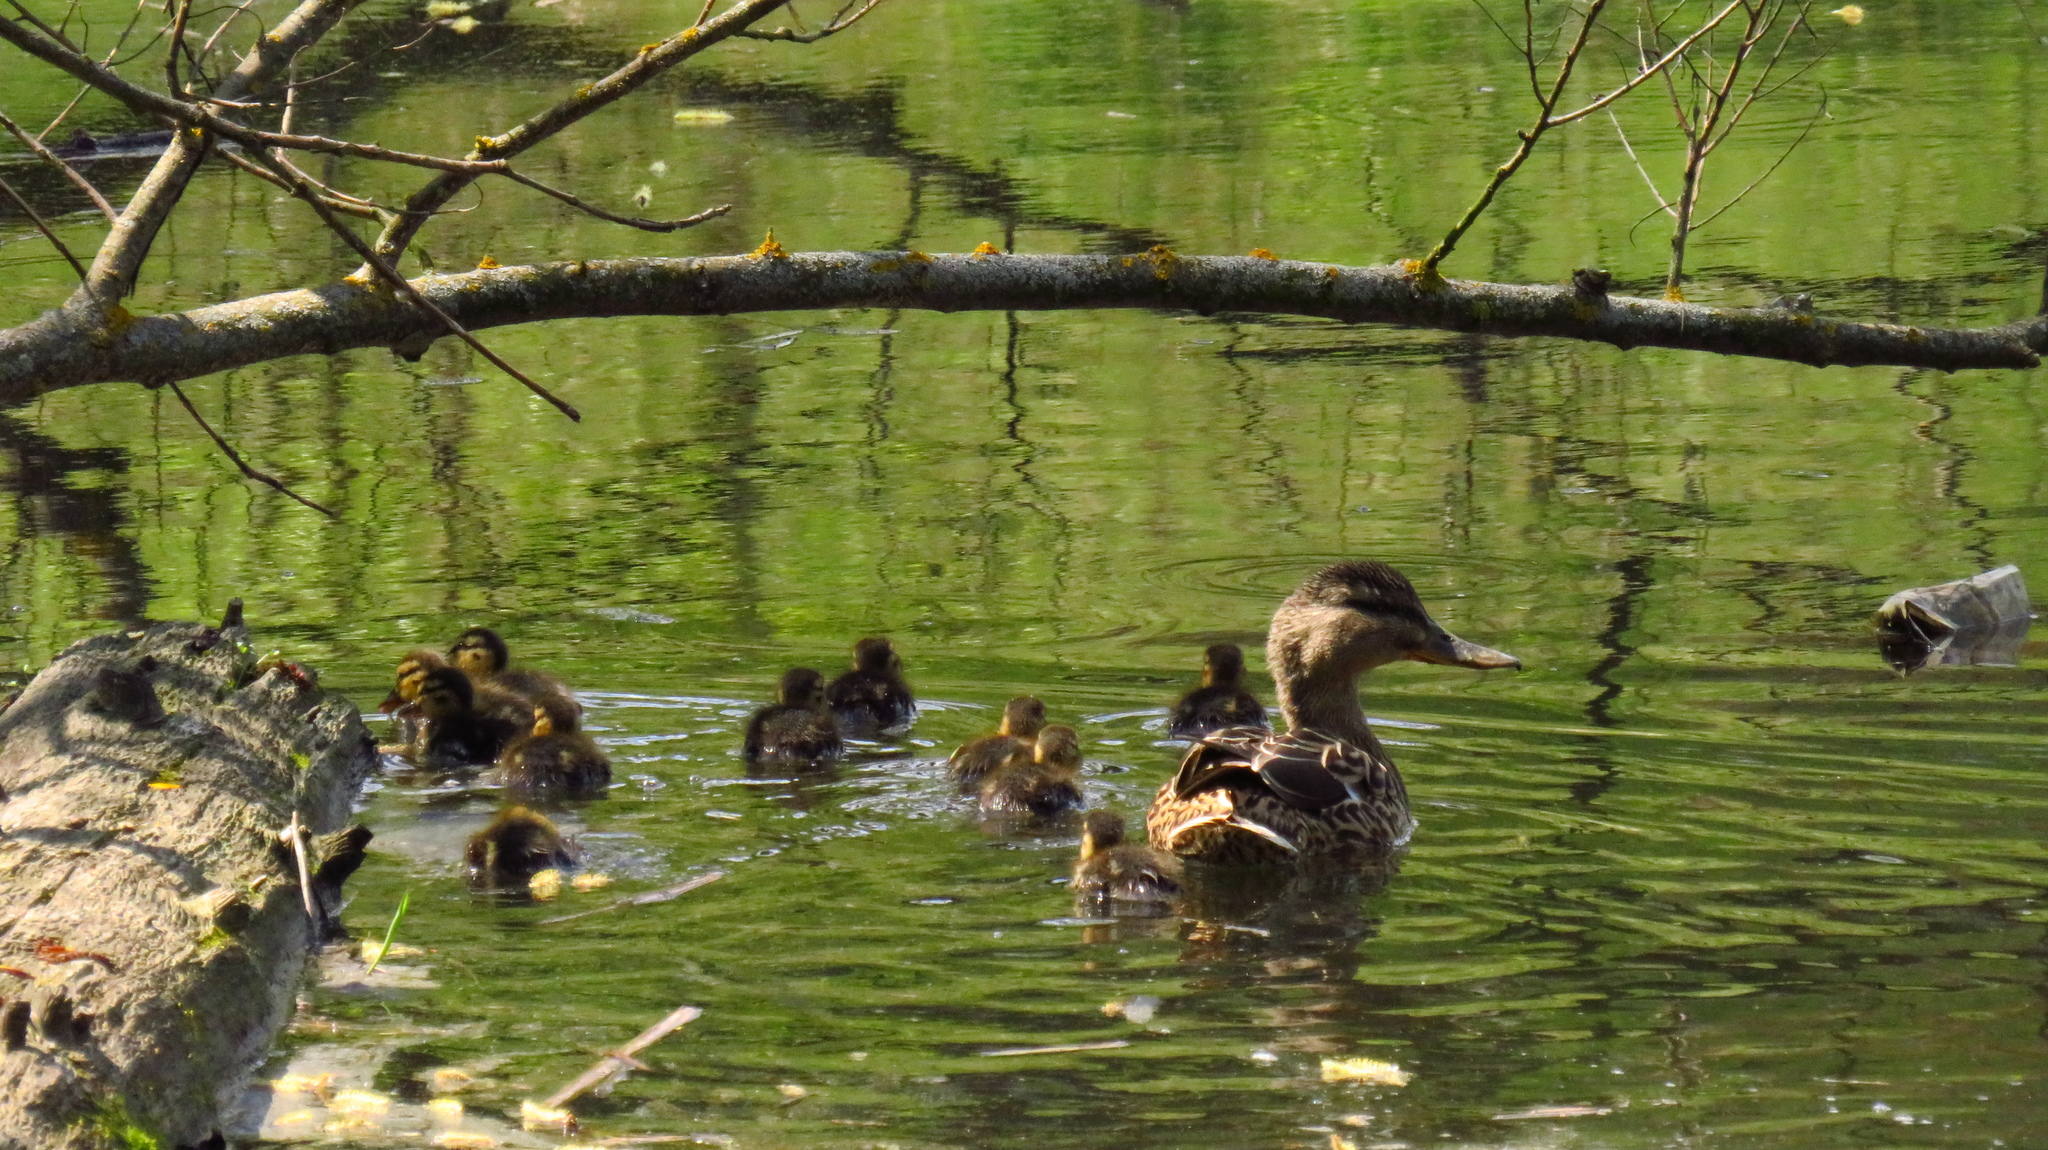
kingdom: Animalia
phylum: Chordata
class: Aves
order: Anseriformes
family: Anatidae
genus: Anas
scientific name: Anas platyrhynchos
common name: Mallard
